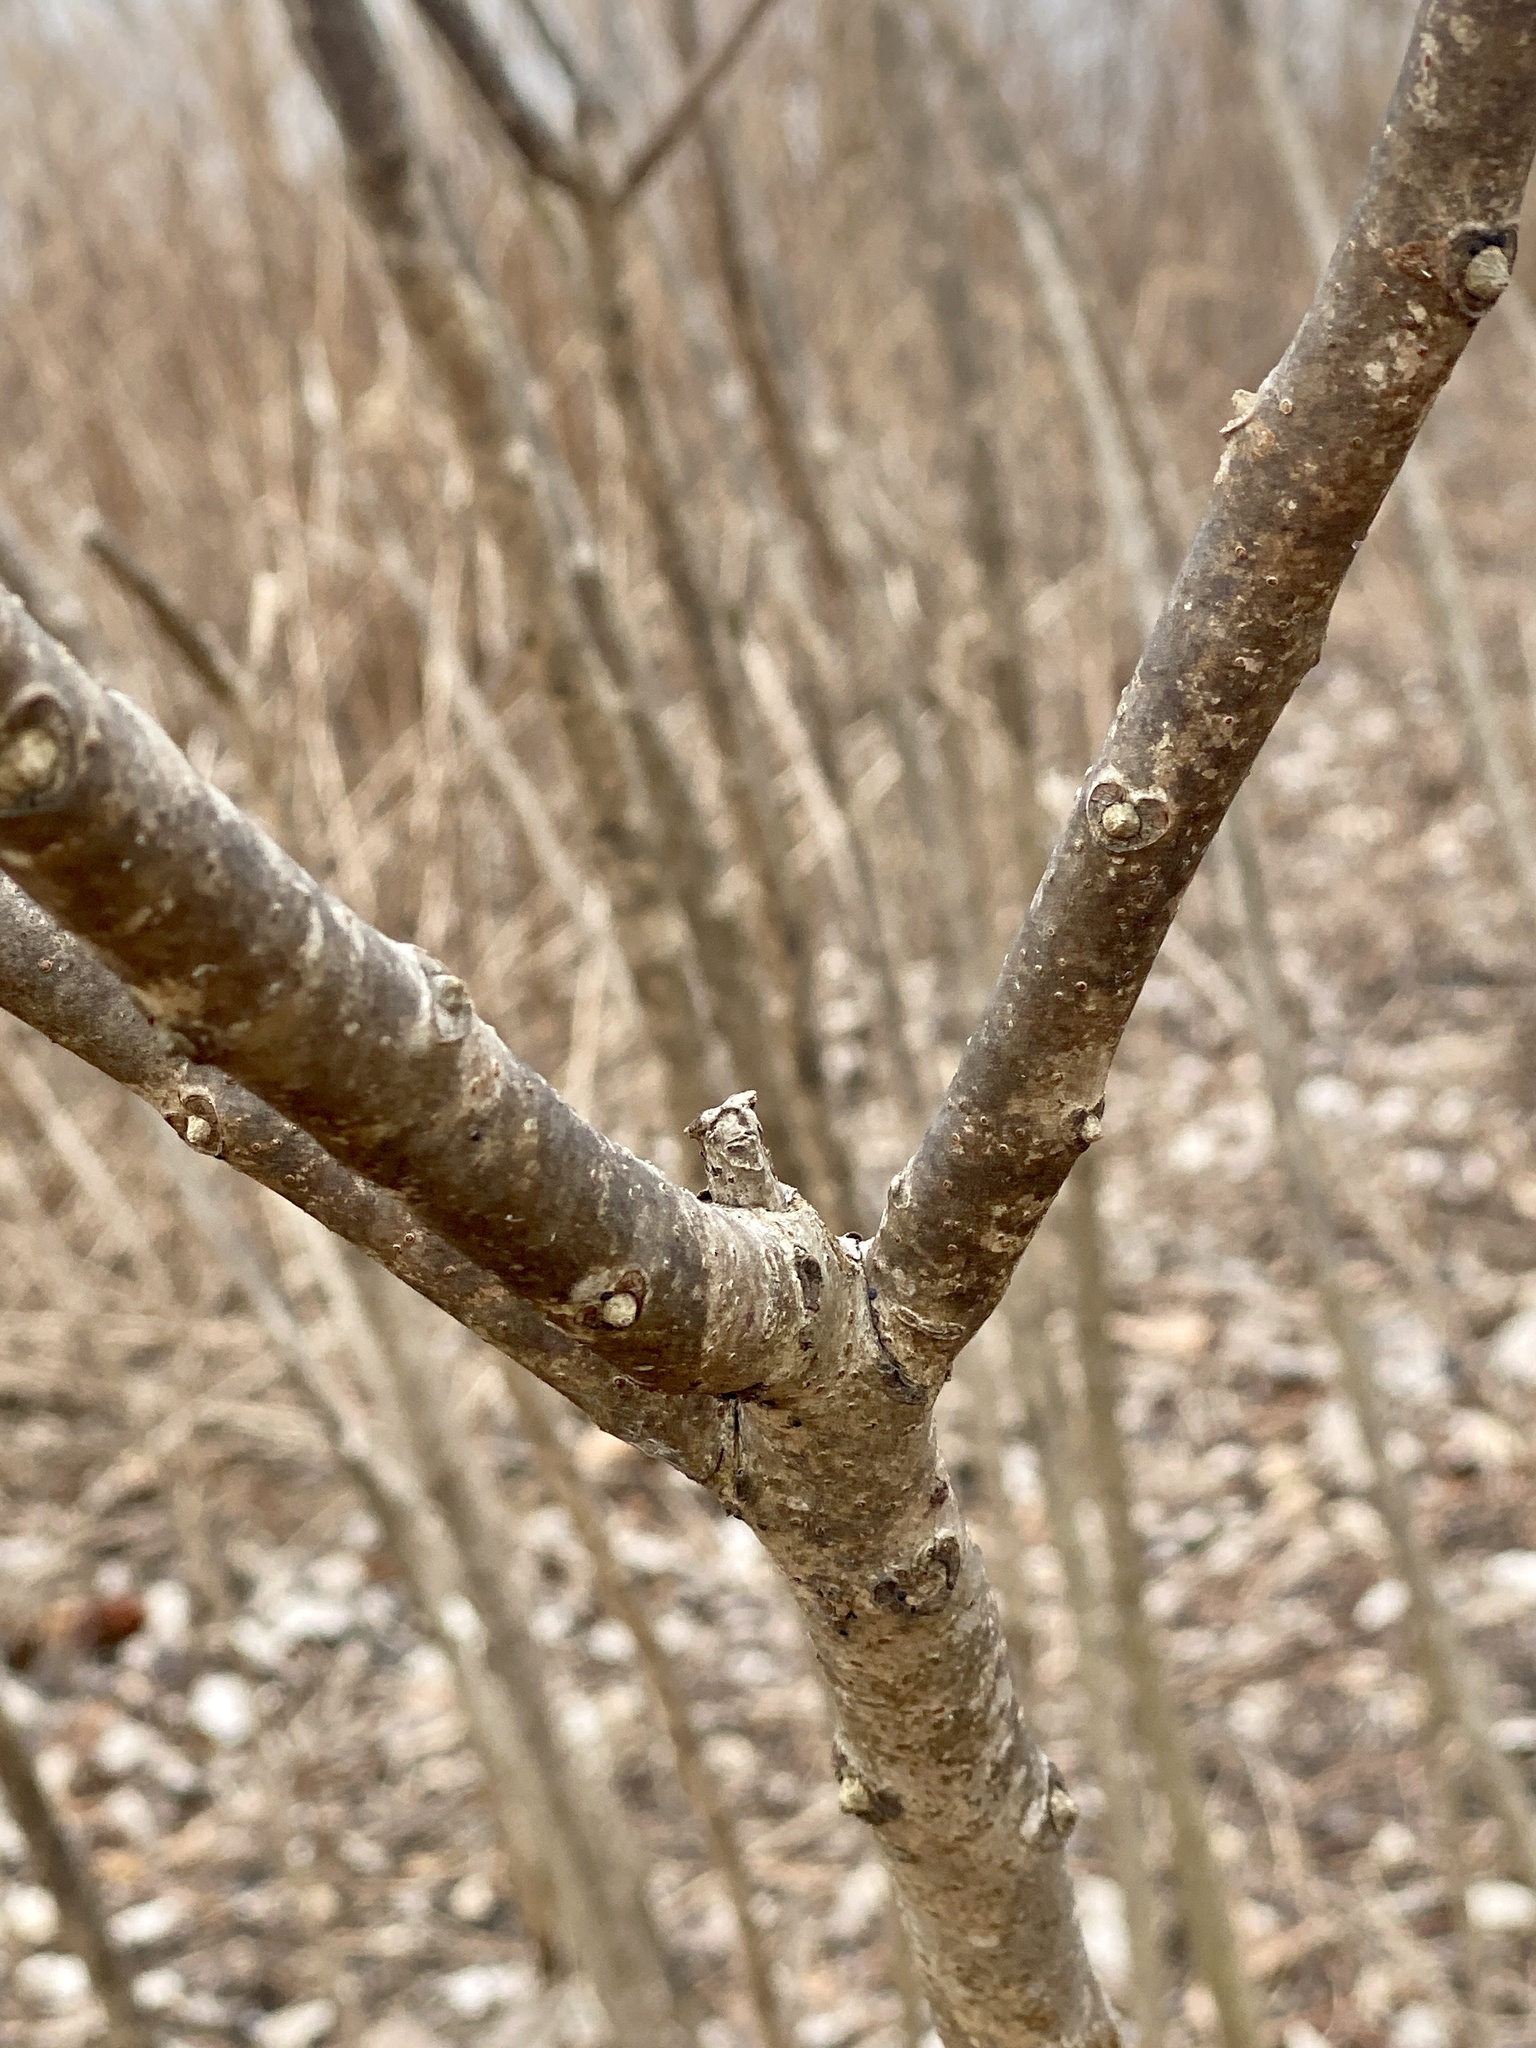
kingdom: Plantae
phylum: Tracheophyta
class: Magnoliopsida
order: Sapindales
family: Anacardiaceae
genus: Rhus
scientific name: Rhus glabra
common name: Scarlet sumac
